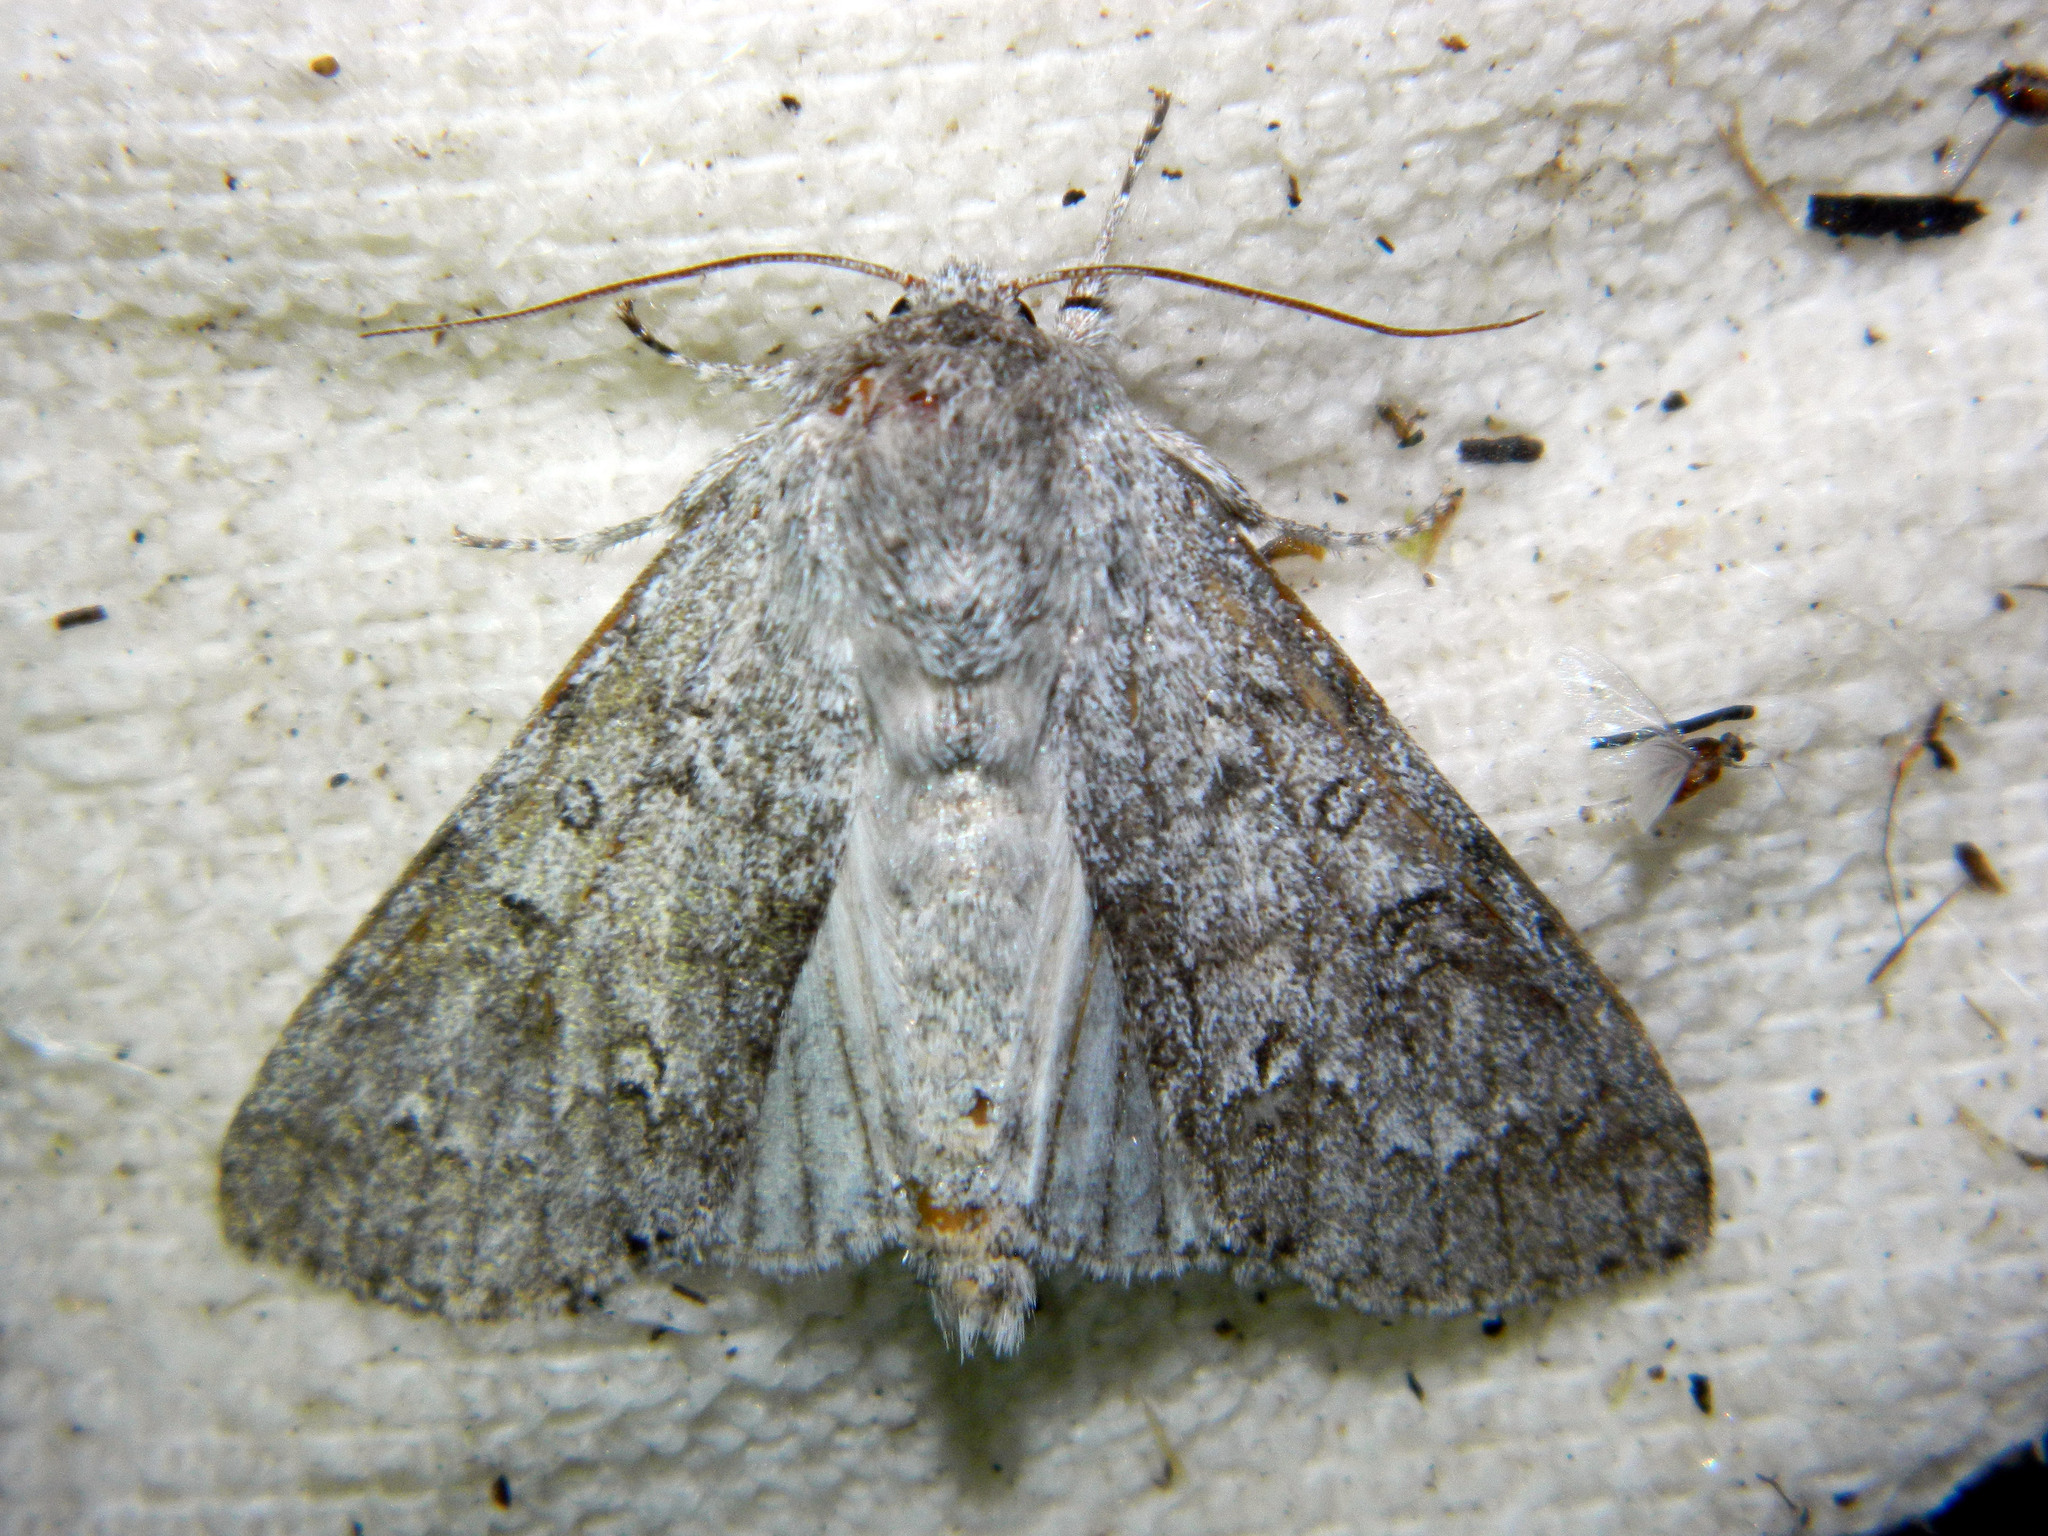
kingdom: Animalia
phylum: Arthropoda
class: Insecta
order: Lepidoptera
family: Noctuidae
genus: Acronicta
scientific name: Acronicta insita
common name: Large gray dagger
